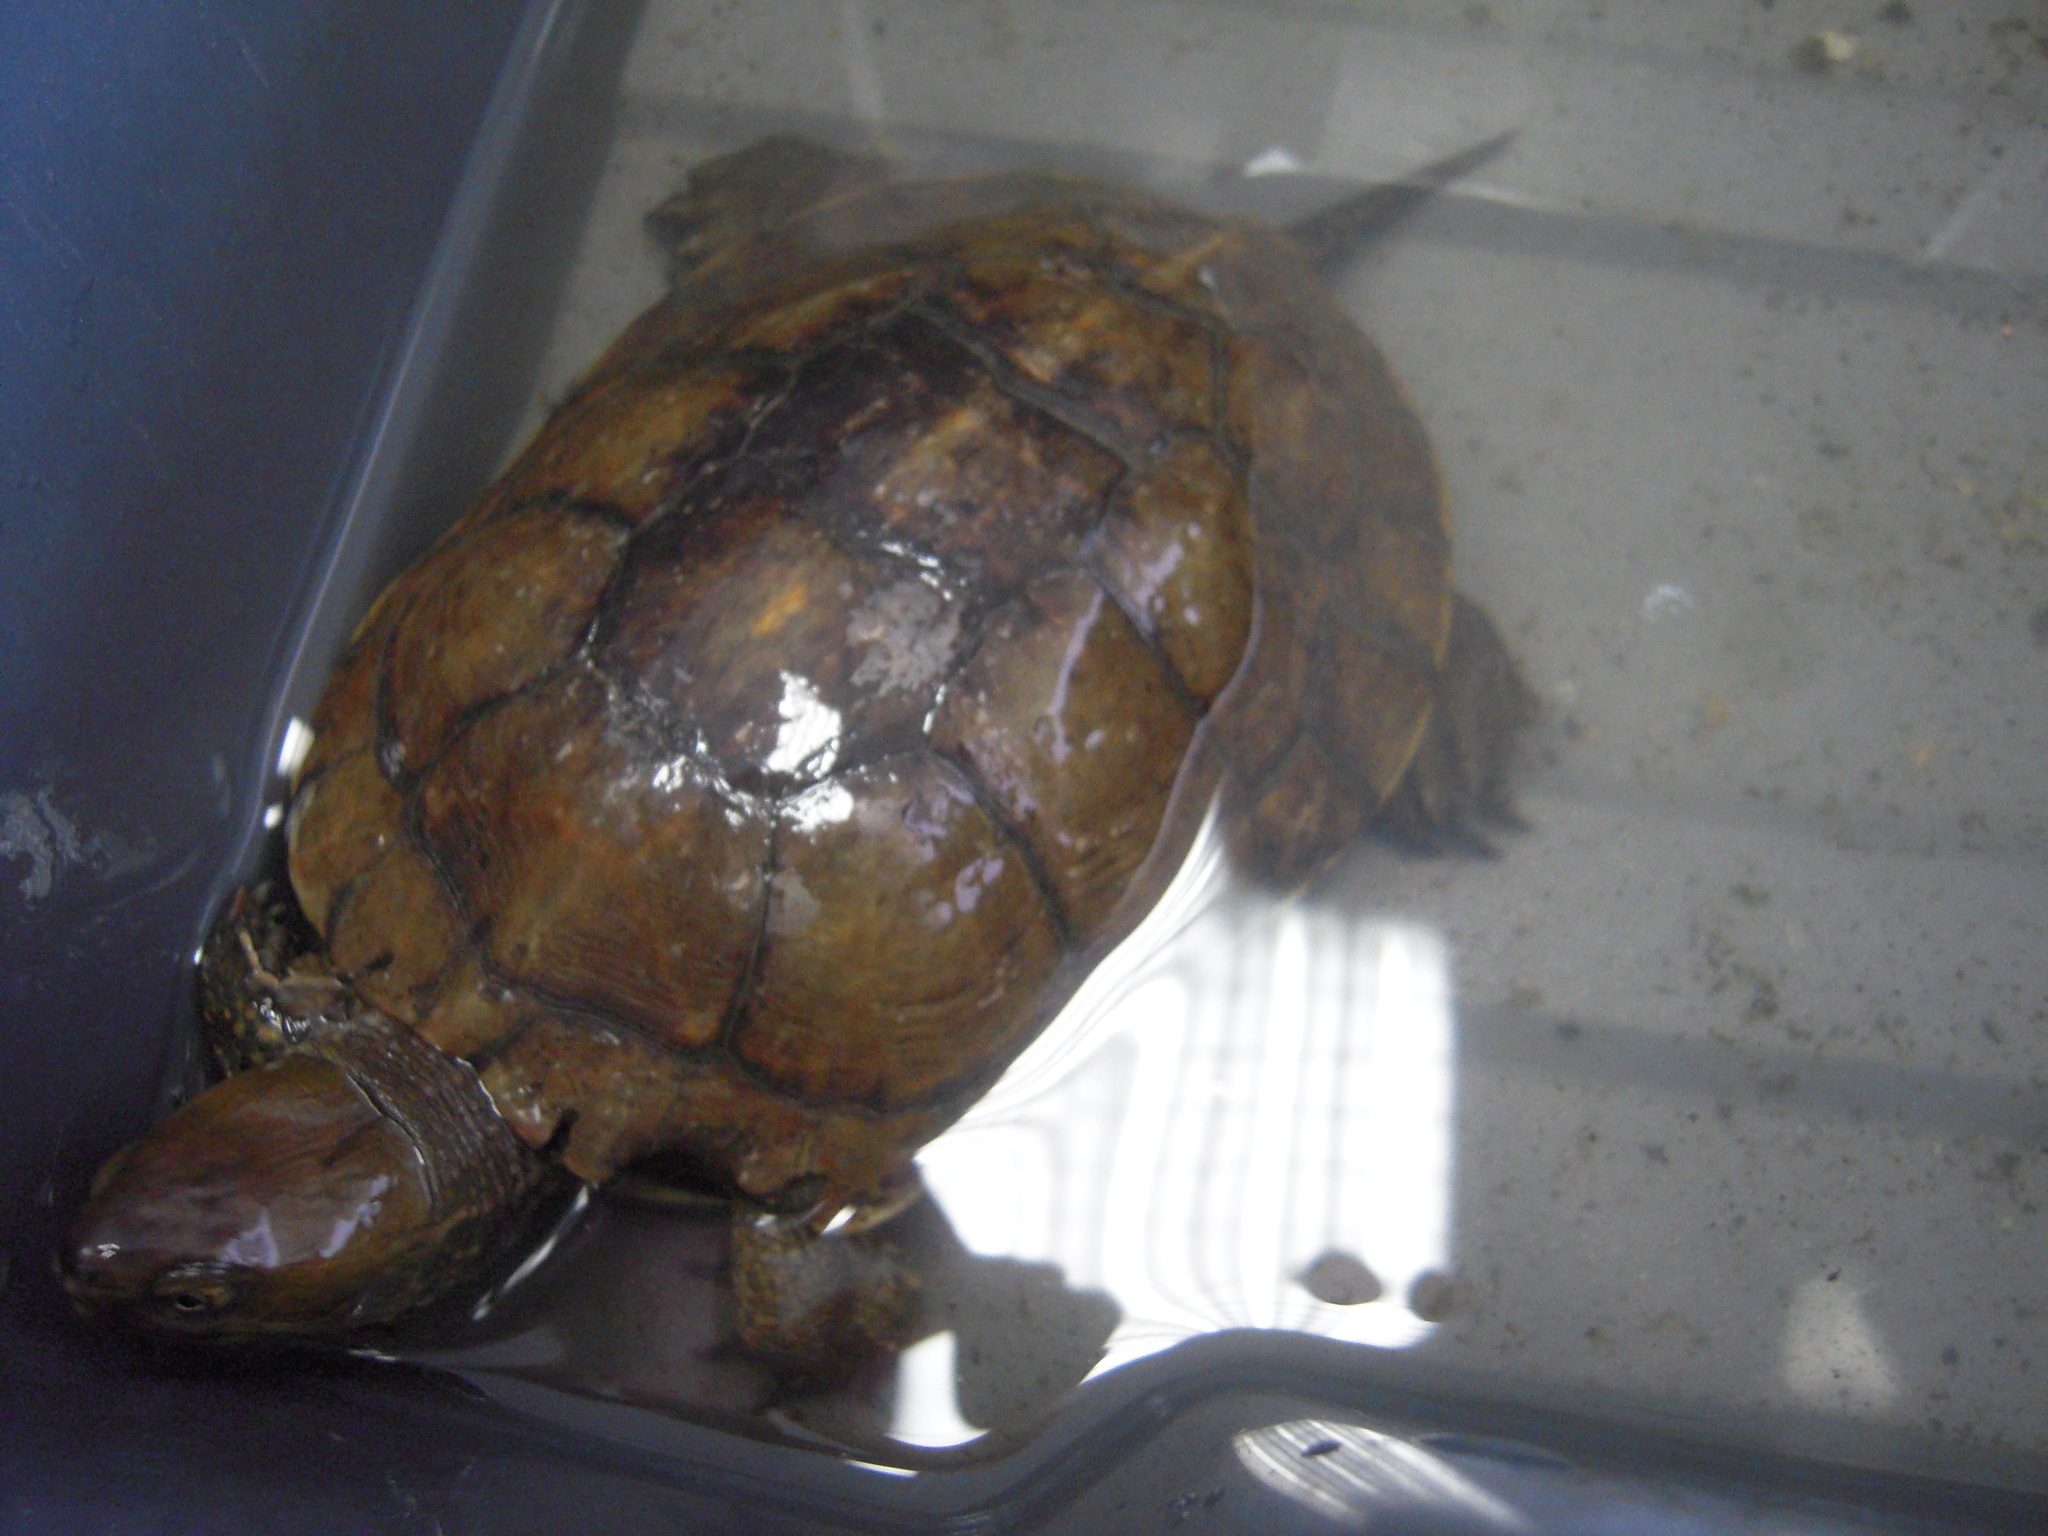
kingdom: Animalia
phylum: Chordata
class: Testudines
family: Geoemydidae
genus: Mauremys
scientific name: Mauremys leprosa
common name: Mediterranean pond turtle
